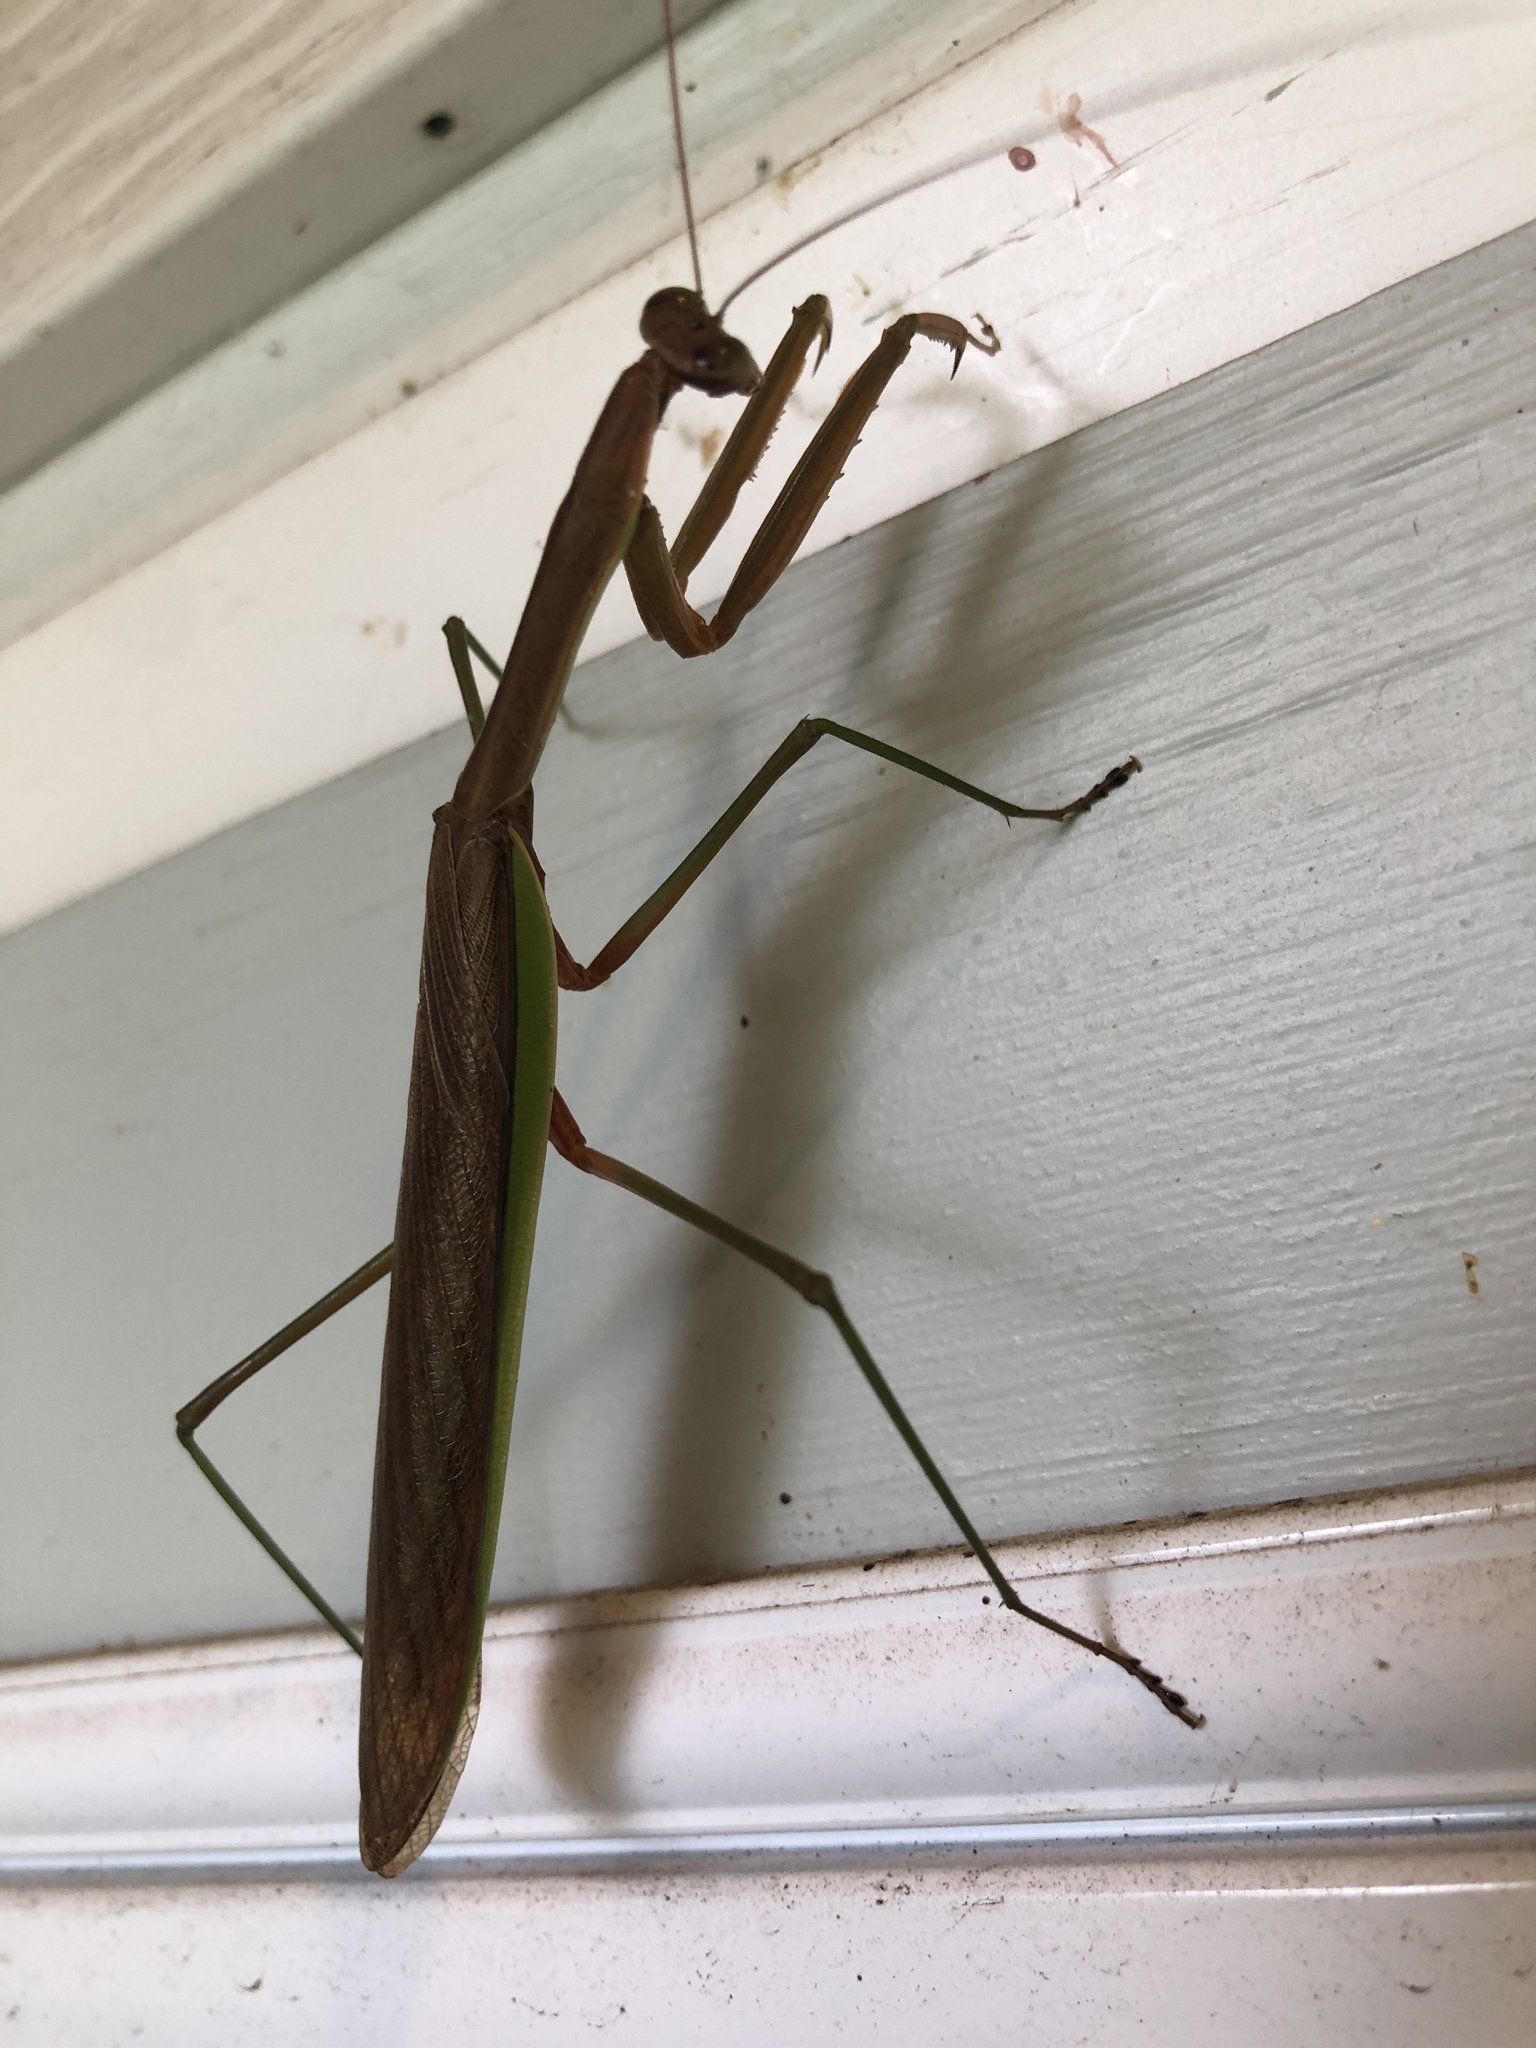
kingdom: Animalia
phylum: Arthropoda
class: Insecta
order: Mantodea
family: Mantidae
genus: Tenodera
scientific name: Tenodera sinensis
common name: Chinese mantis
